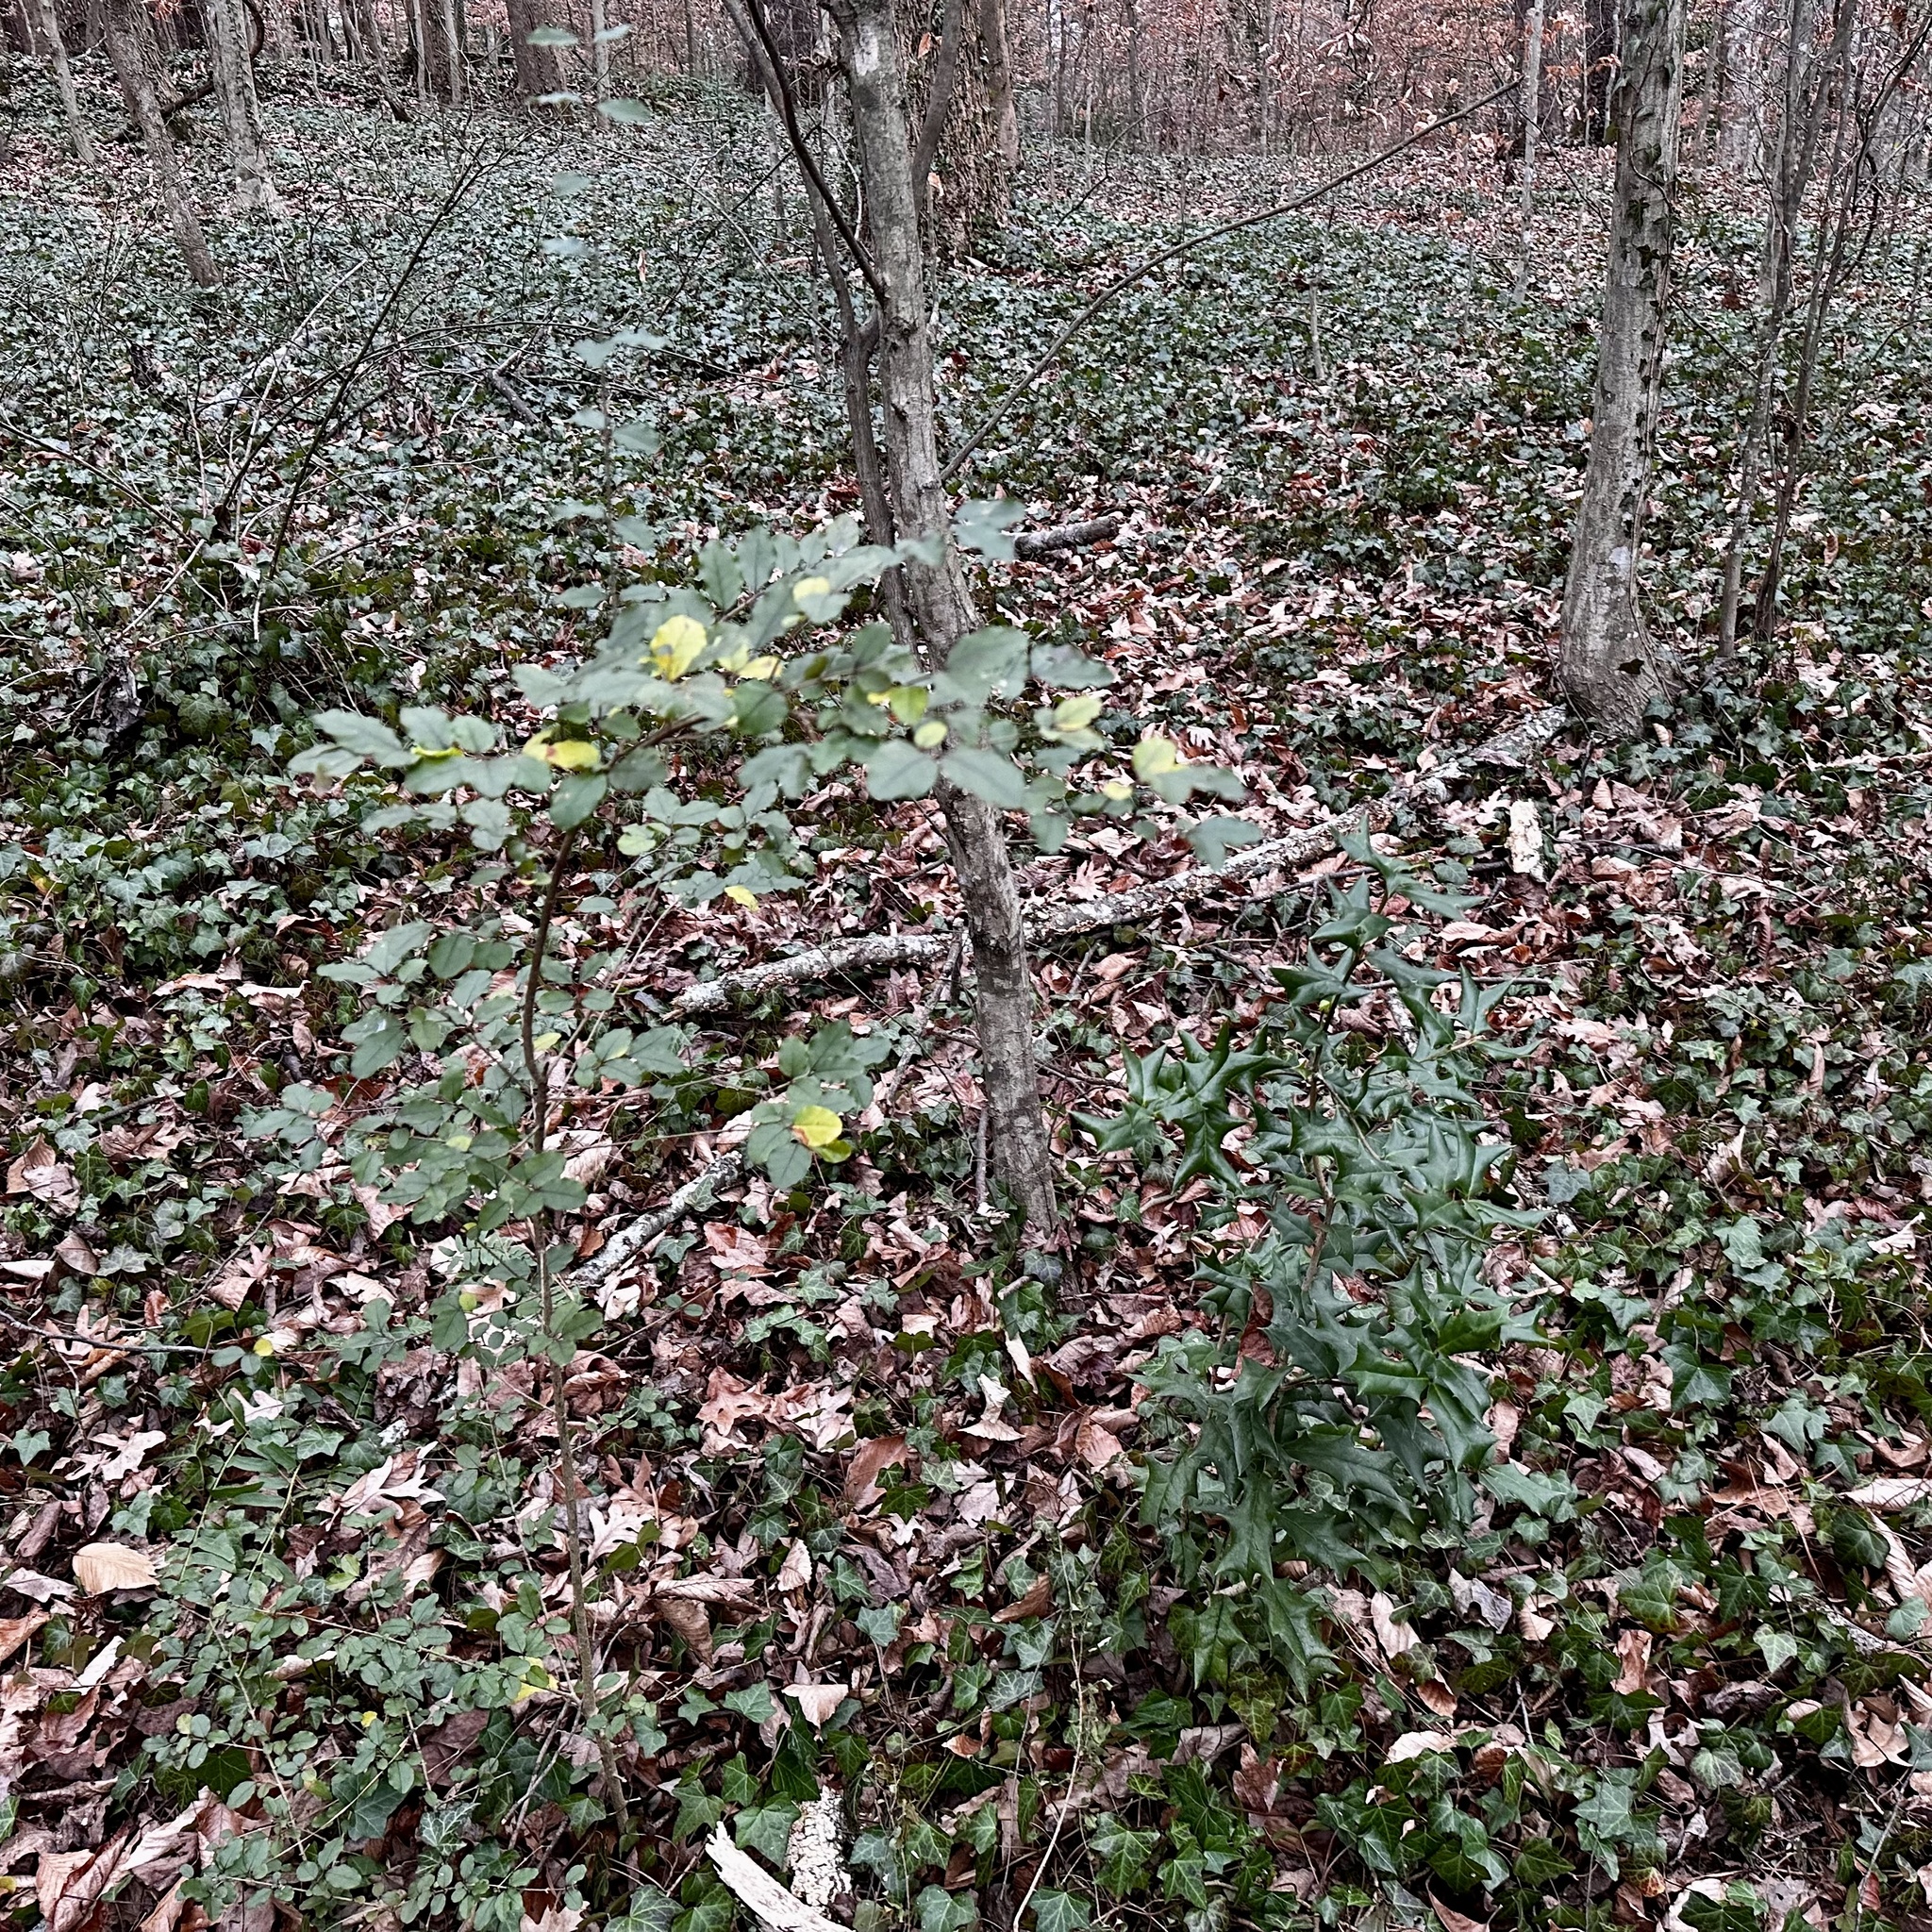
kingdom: Plantae
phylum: Tracheophyta
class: Magnoliopsida
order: Lamiales
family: Oleaceae
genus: Ligustrum
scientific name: Ligustrum sinense
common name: Chinese privet
